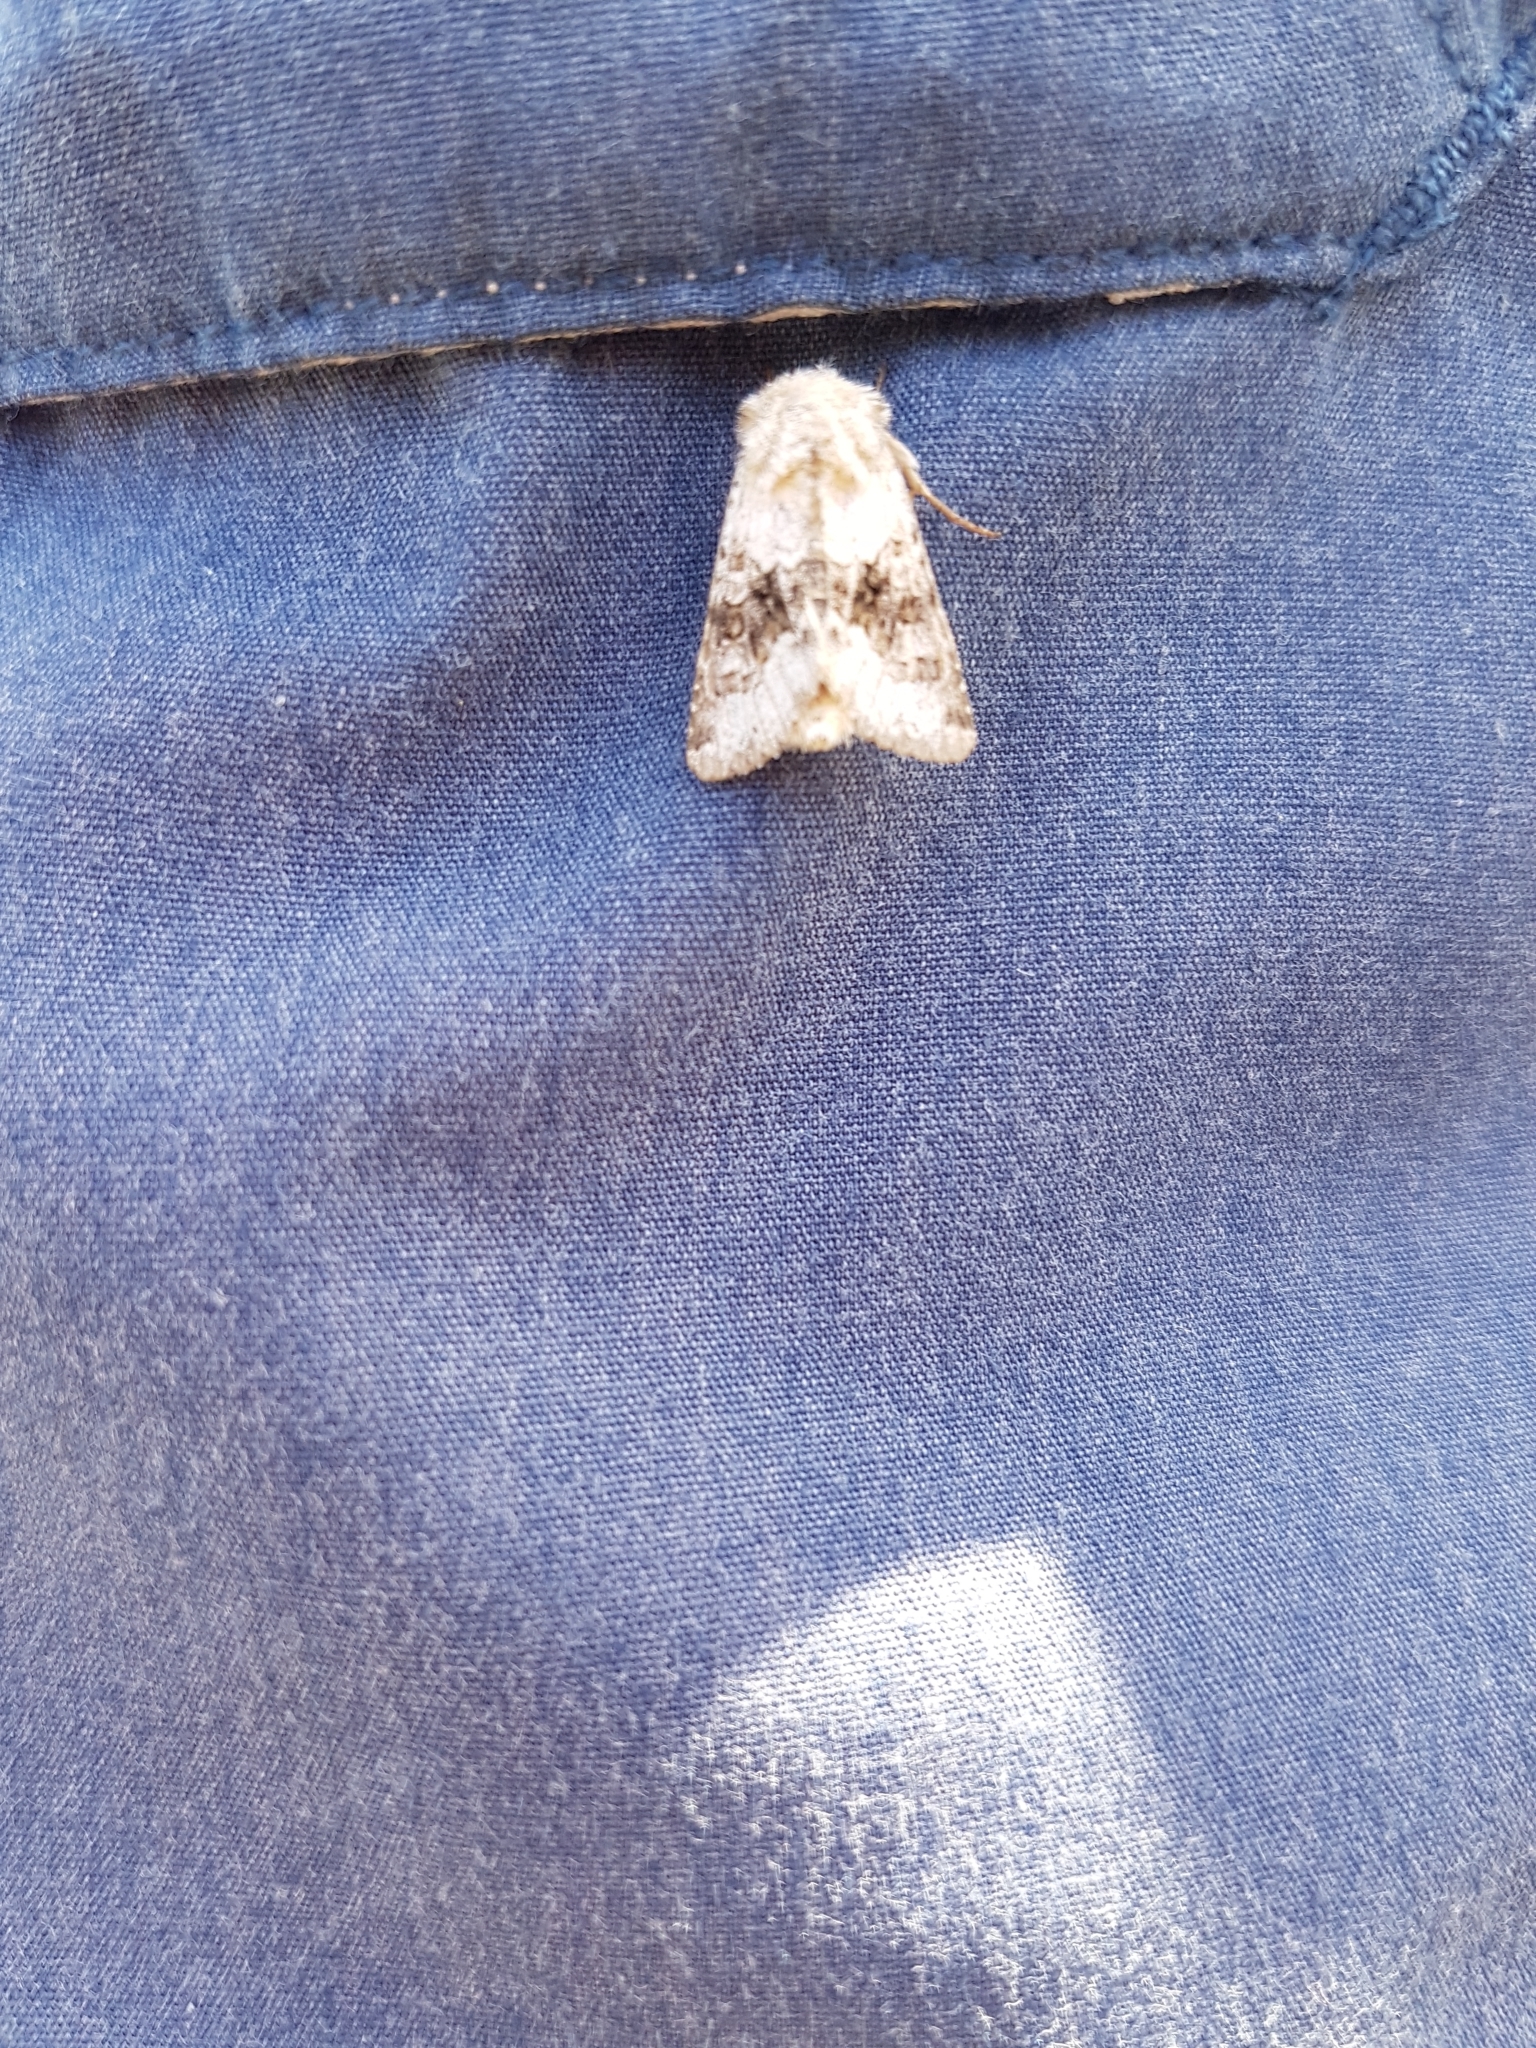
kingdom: Animalia
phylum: Arthropoda
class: Insecta
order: Lepidoptera
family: Noctuidae
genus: Hecatera
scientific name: Hecatera bicolorata
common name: Broad-barred white
